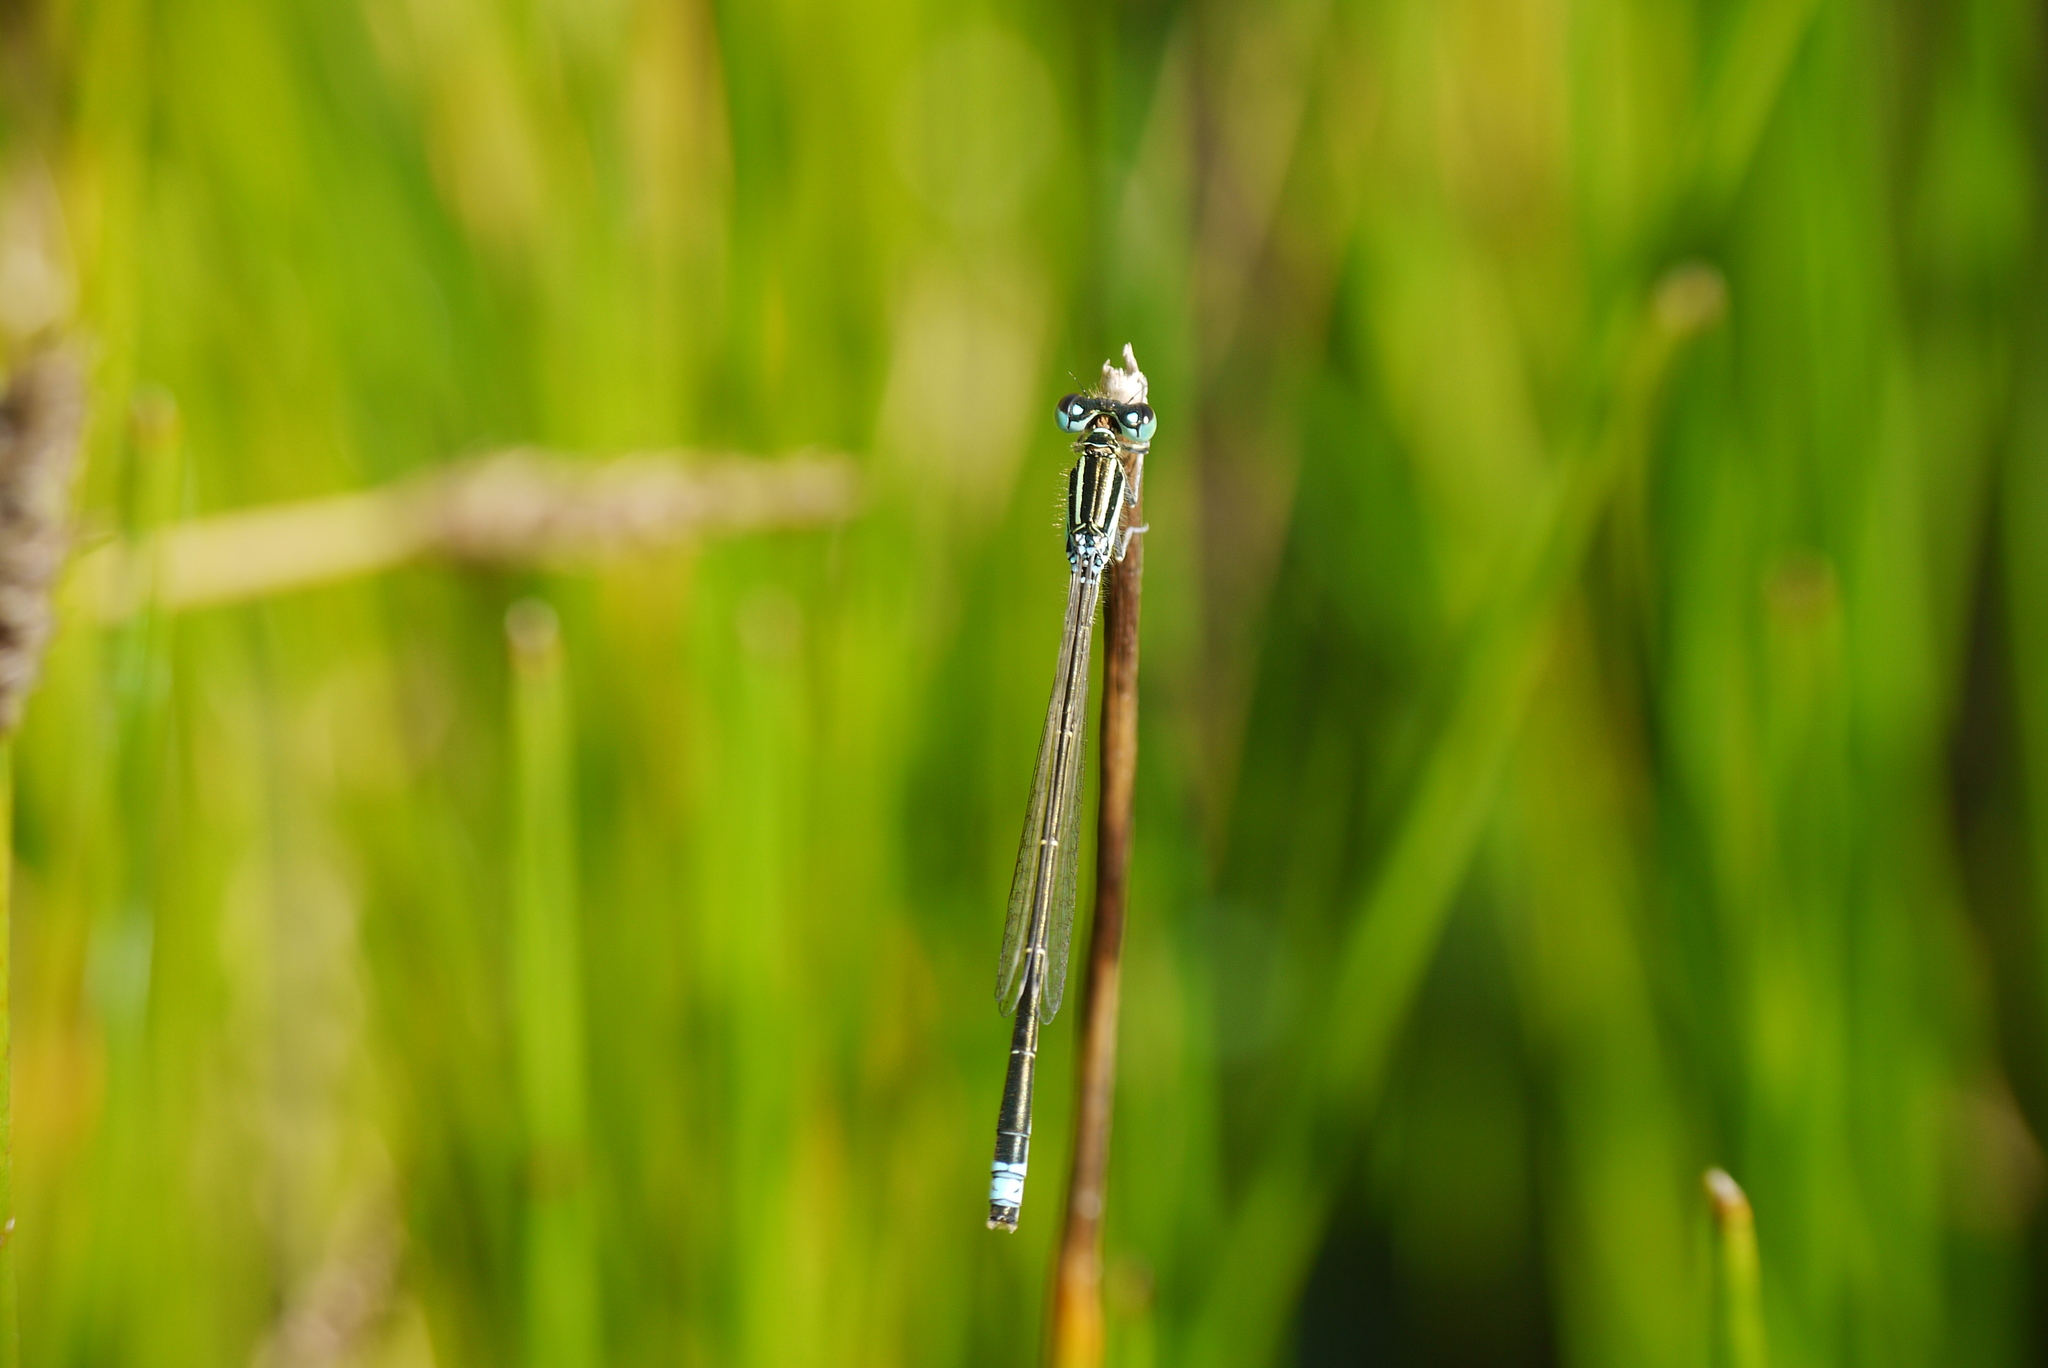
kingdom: Animalia
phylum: Arthropoda
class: Insecta
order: Odonata
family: Coenagrionidae
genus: Ischnura
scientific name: Ischnura pumilio
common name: Scarce blue-tailed damselfly
